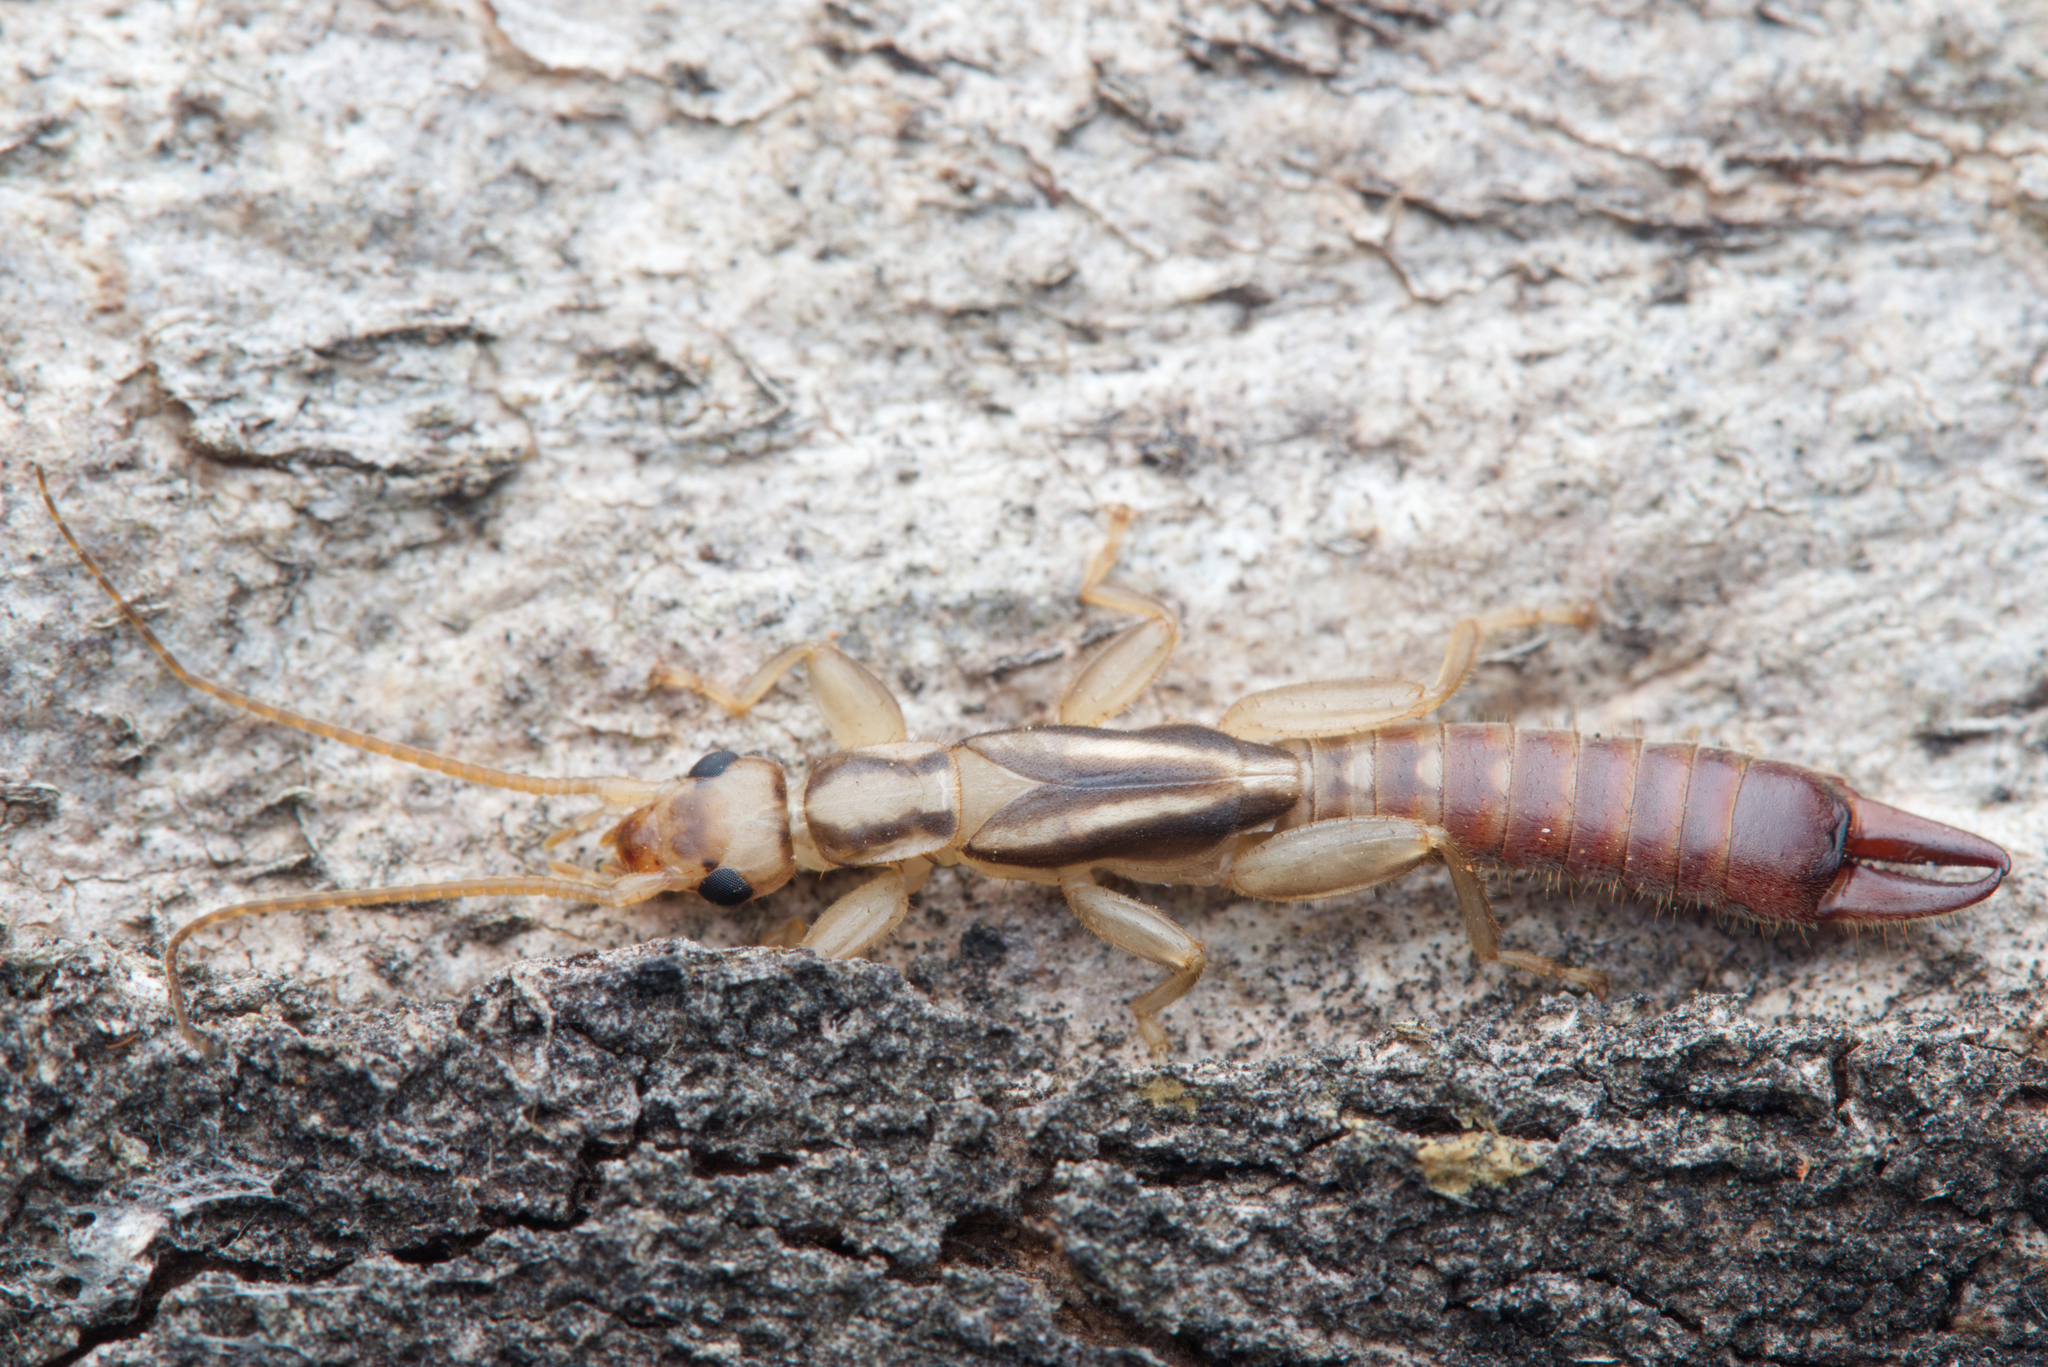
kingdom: Animalia
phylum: Arthropoda
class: Insecta
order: Dermaptera
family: Pygidicranidae
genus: Dacnodes
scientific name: Dacnodes hackeri
